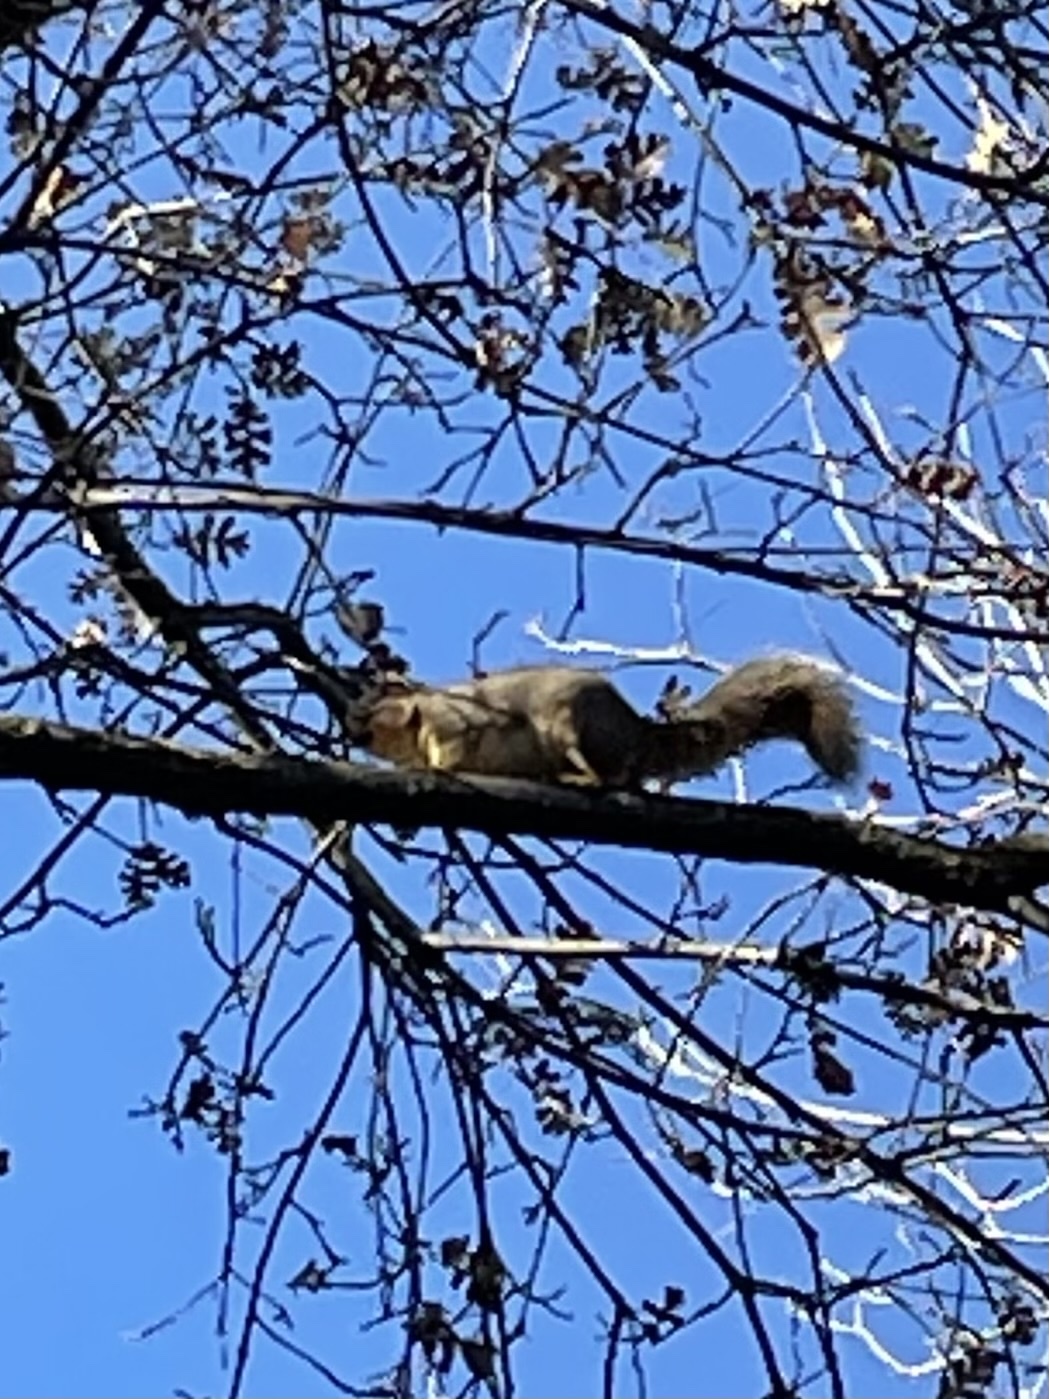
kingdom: Animalia
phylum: Chordata
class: Mammalia
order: Rodentia
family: Sciuridae
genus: Sciurus
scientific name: Sciurus niger
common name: Fox squirrel
